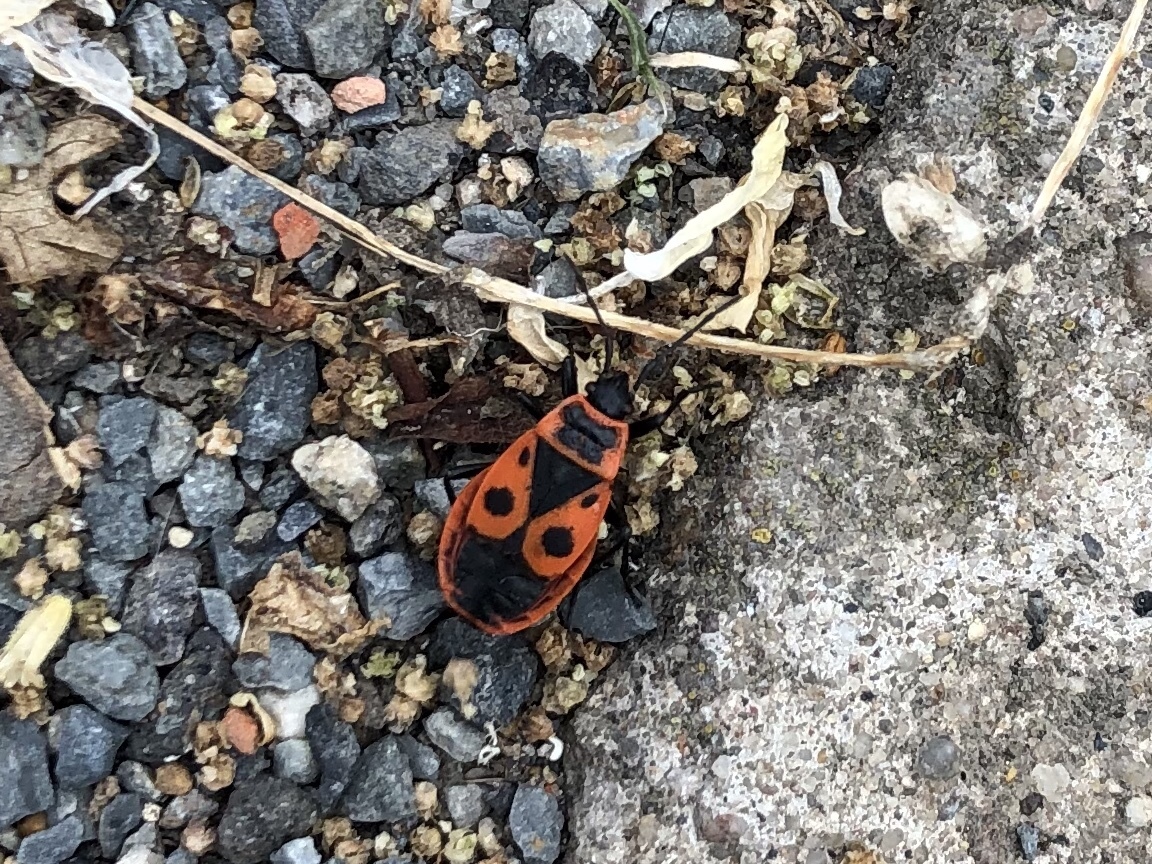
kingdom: Animalia
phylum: Arthropoda
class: Insecta
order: Hemiptera
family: Pyrrhocoridae
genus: Pyrrhocoris
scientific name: Pyrrhocoris apterus
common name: Firebug
